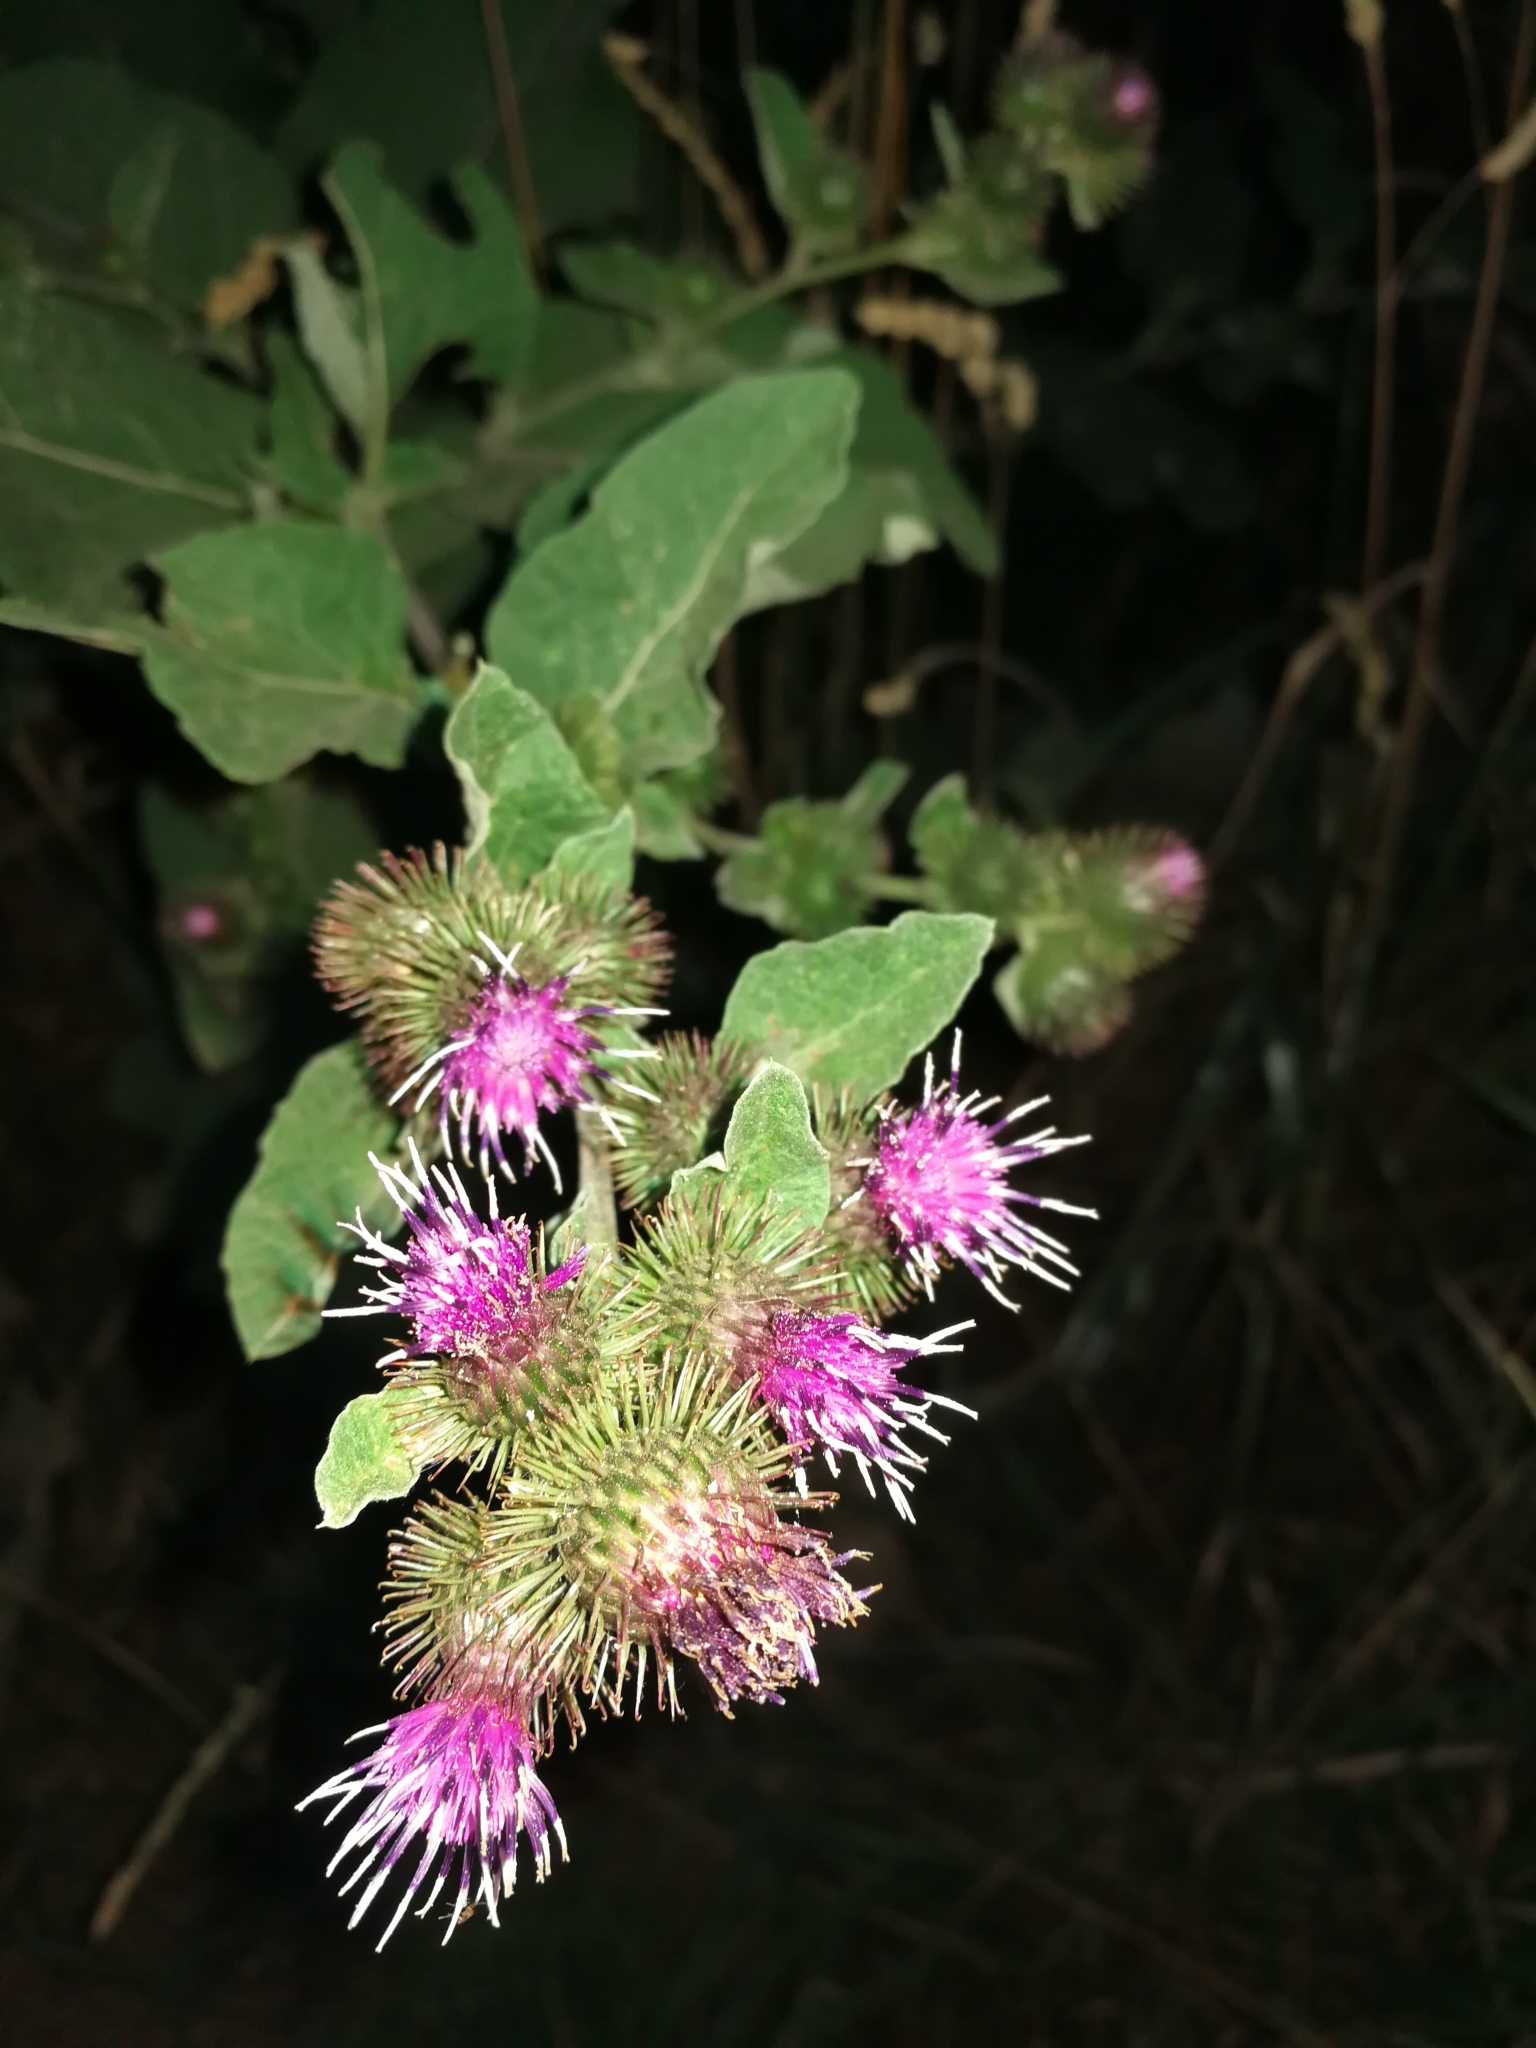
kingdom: Plantae
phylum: Tracheophyta
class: Magnoliopsida
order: Asterales
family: Asteraceae
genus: Arctium
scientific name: Arctium minus
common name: Lesser burdock
